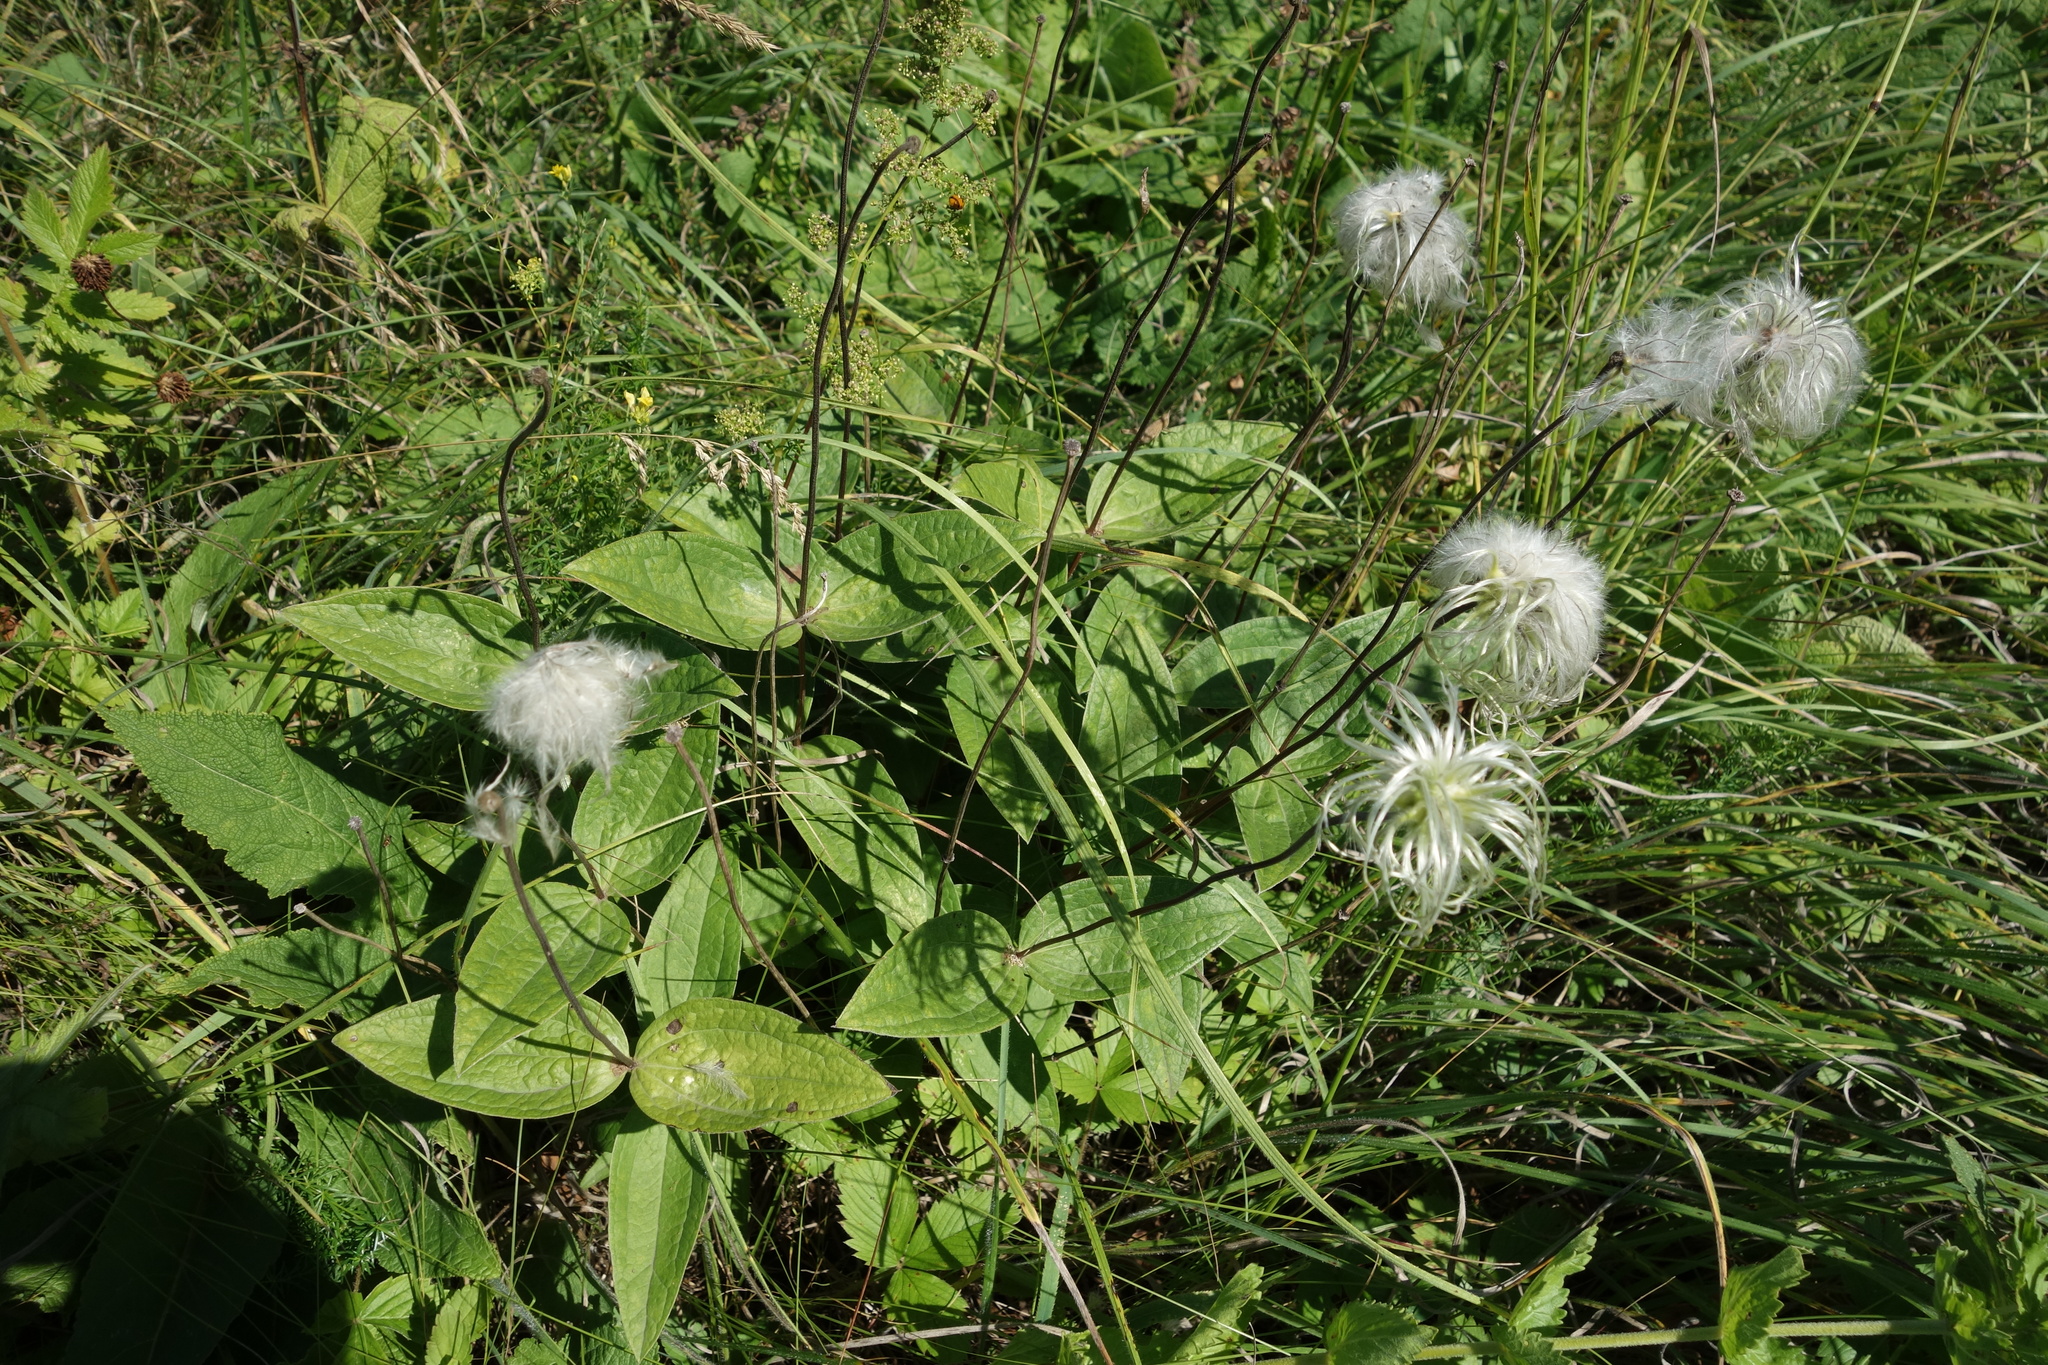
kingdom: Plantae
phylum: Tracheophyta
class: Magnoliopsida
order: Ranunculales
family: Ranunculaceae
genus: Clematis
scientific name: Clematis integrifolia
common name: Solitary clematis
